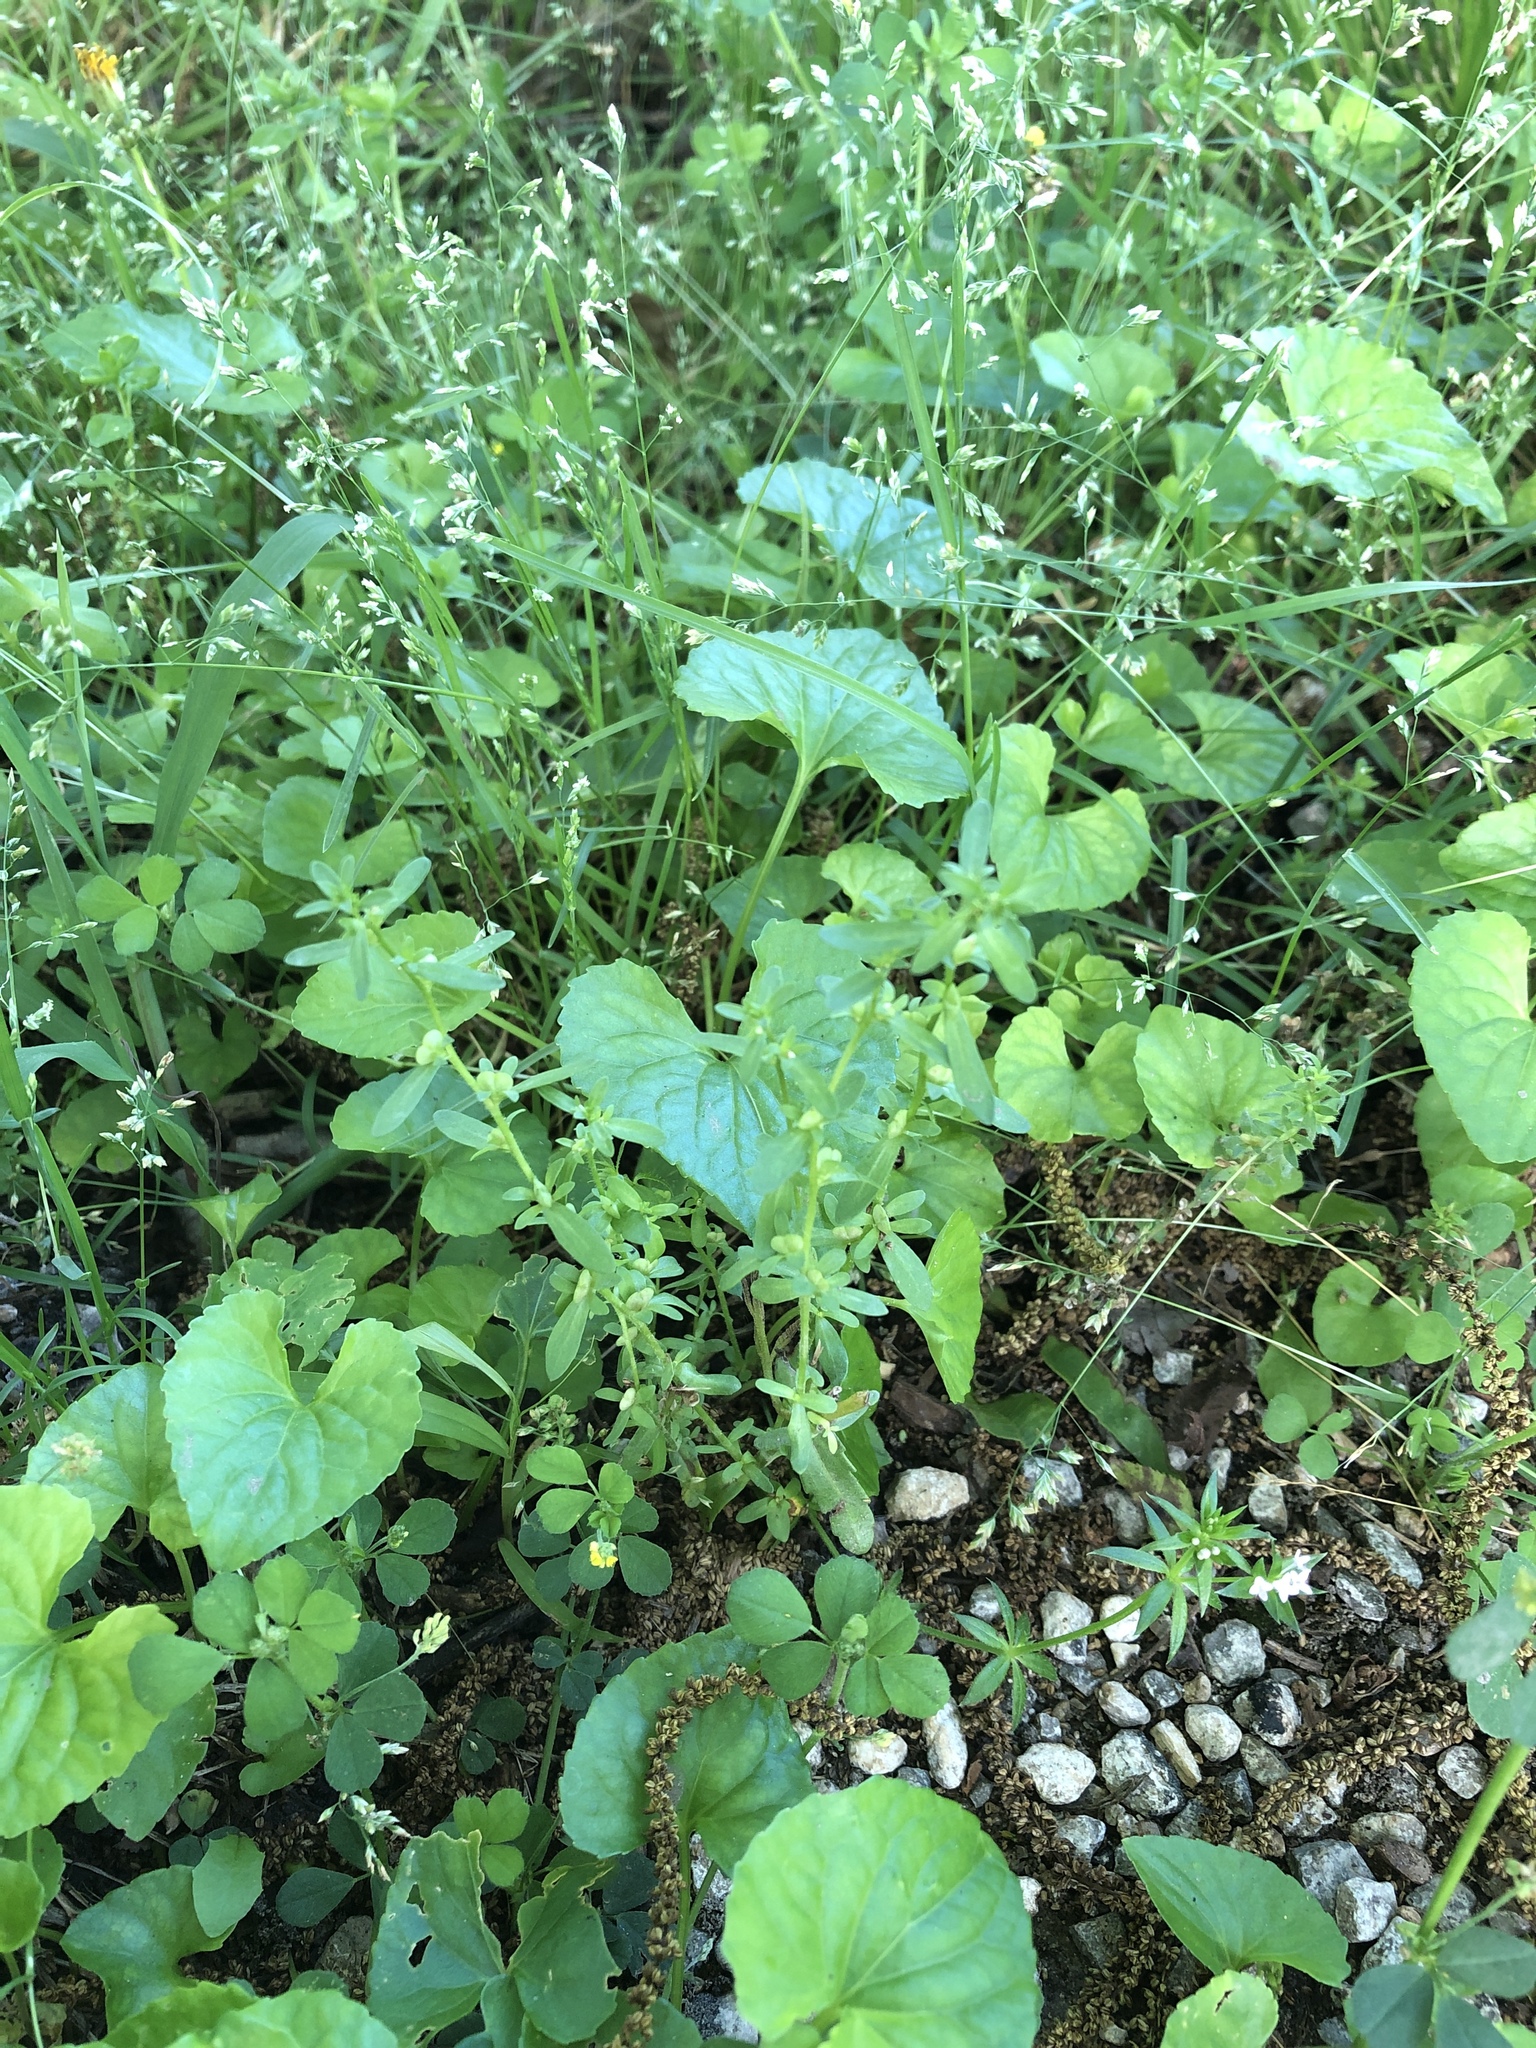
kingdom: Plantae
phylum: Tracheophyta
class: Magnoliopsida
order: Lamiales
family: Plantaginaceae
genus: Veronica
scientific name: Veronica peregrina
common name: Neckweed
